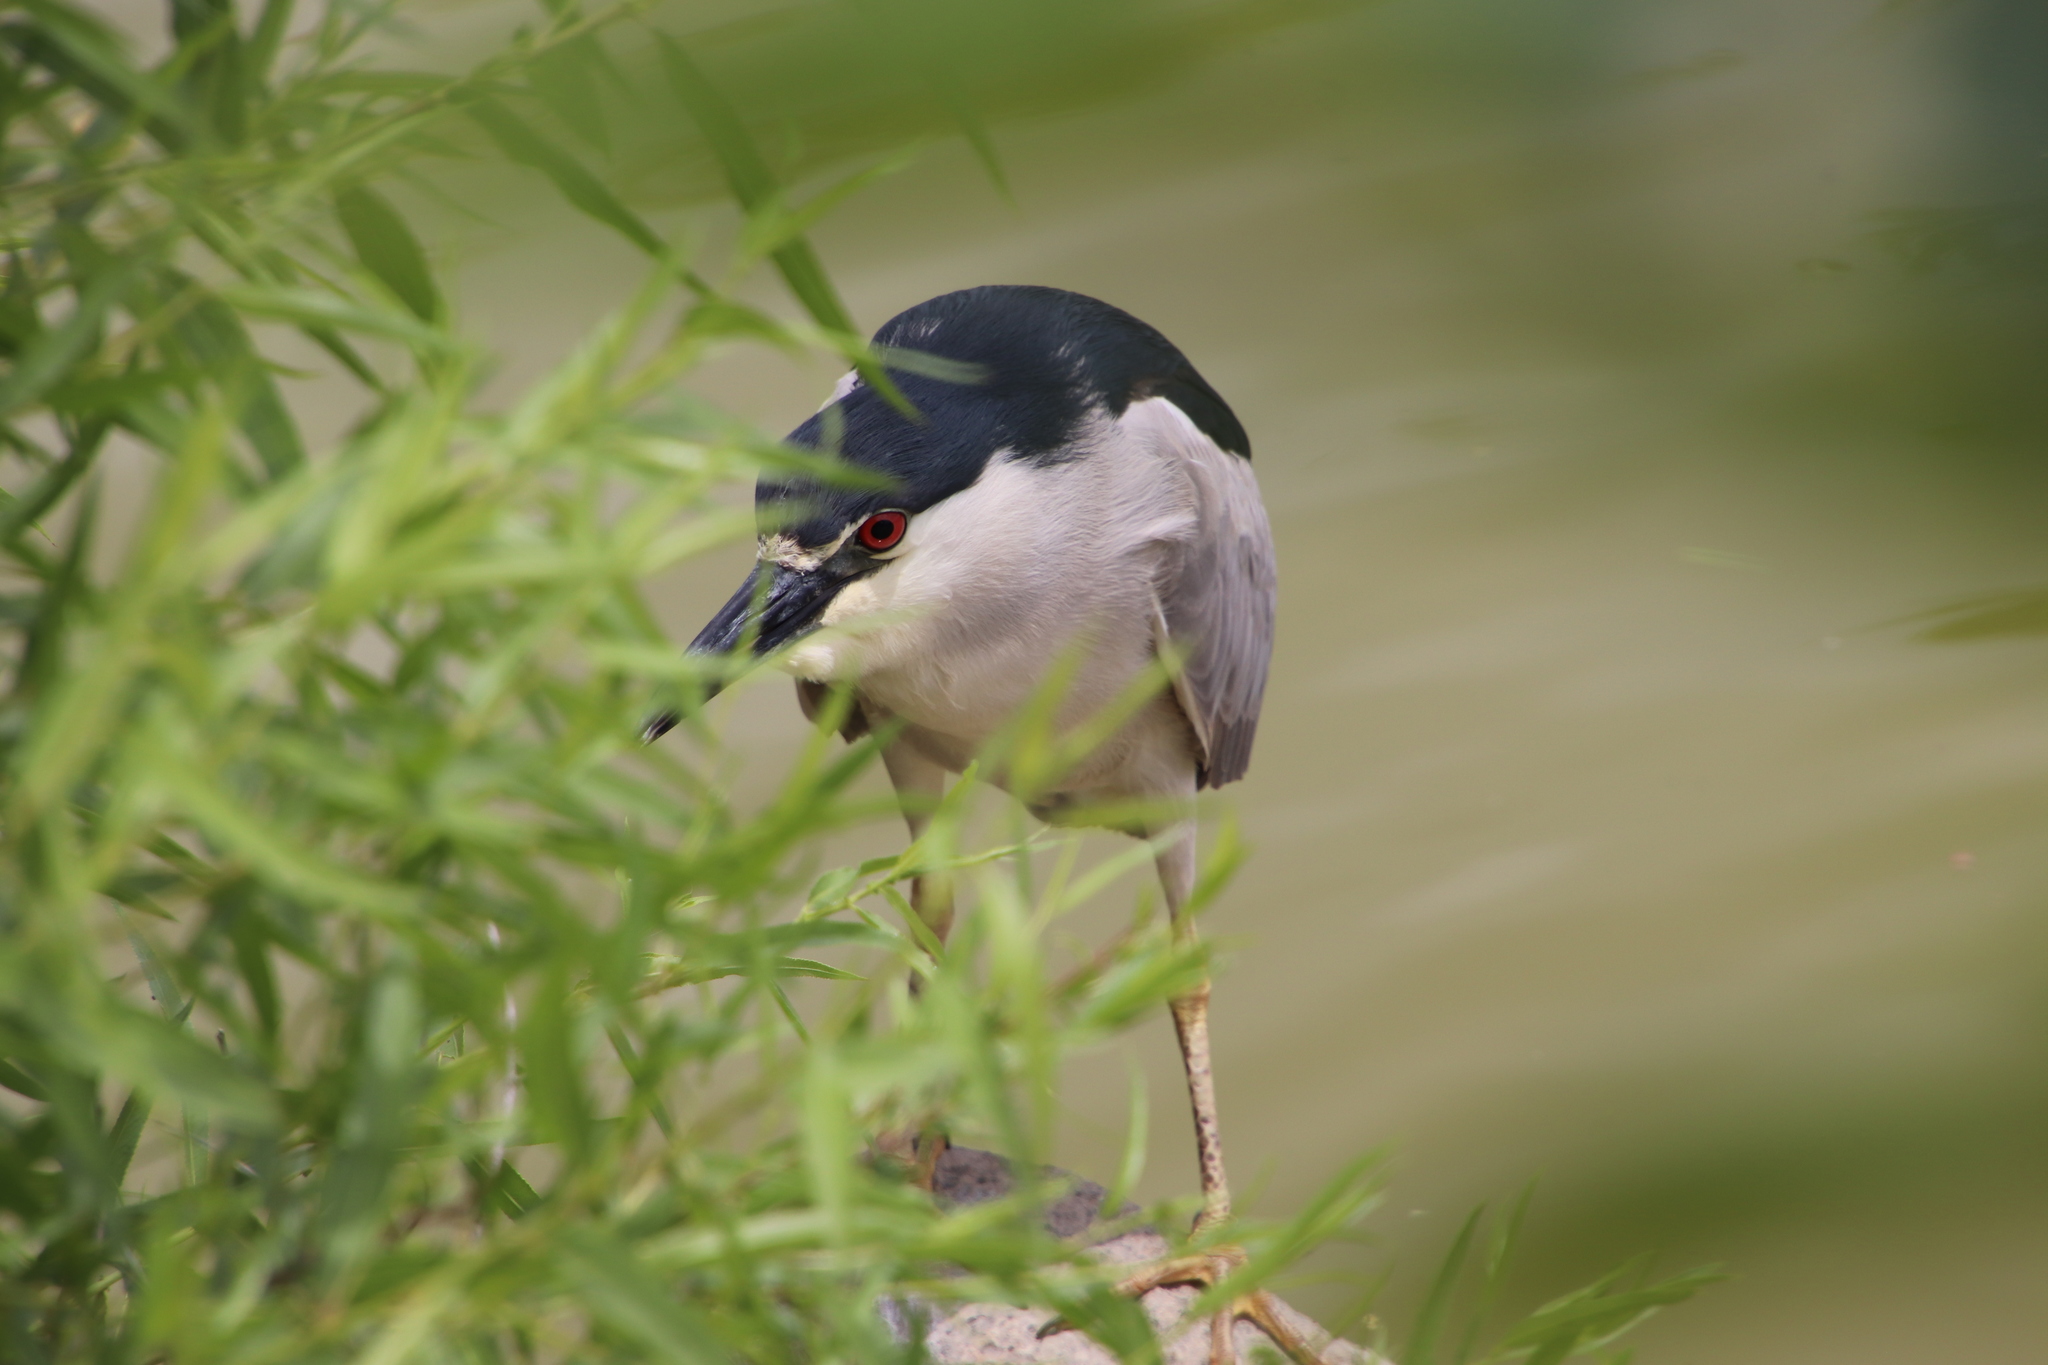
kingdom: Animalia
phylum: Chordata
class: Aves
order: Pelecaniformes
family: Ardeidae
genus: Nycticorax
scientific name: Nycticorax nycticorax
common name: Black-crowned night heron
